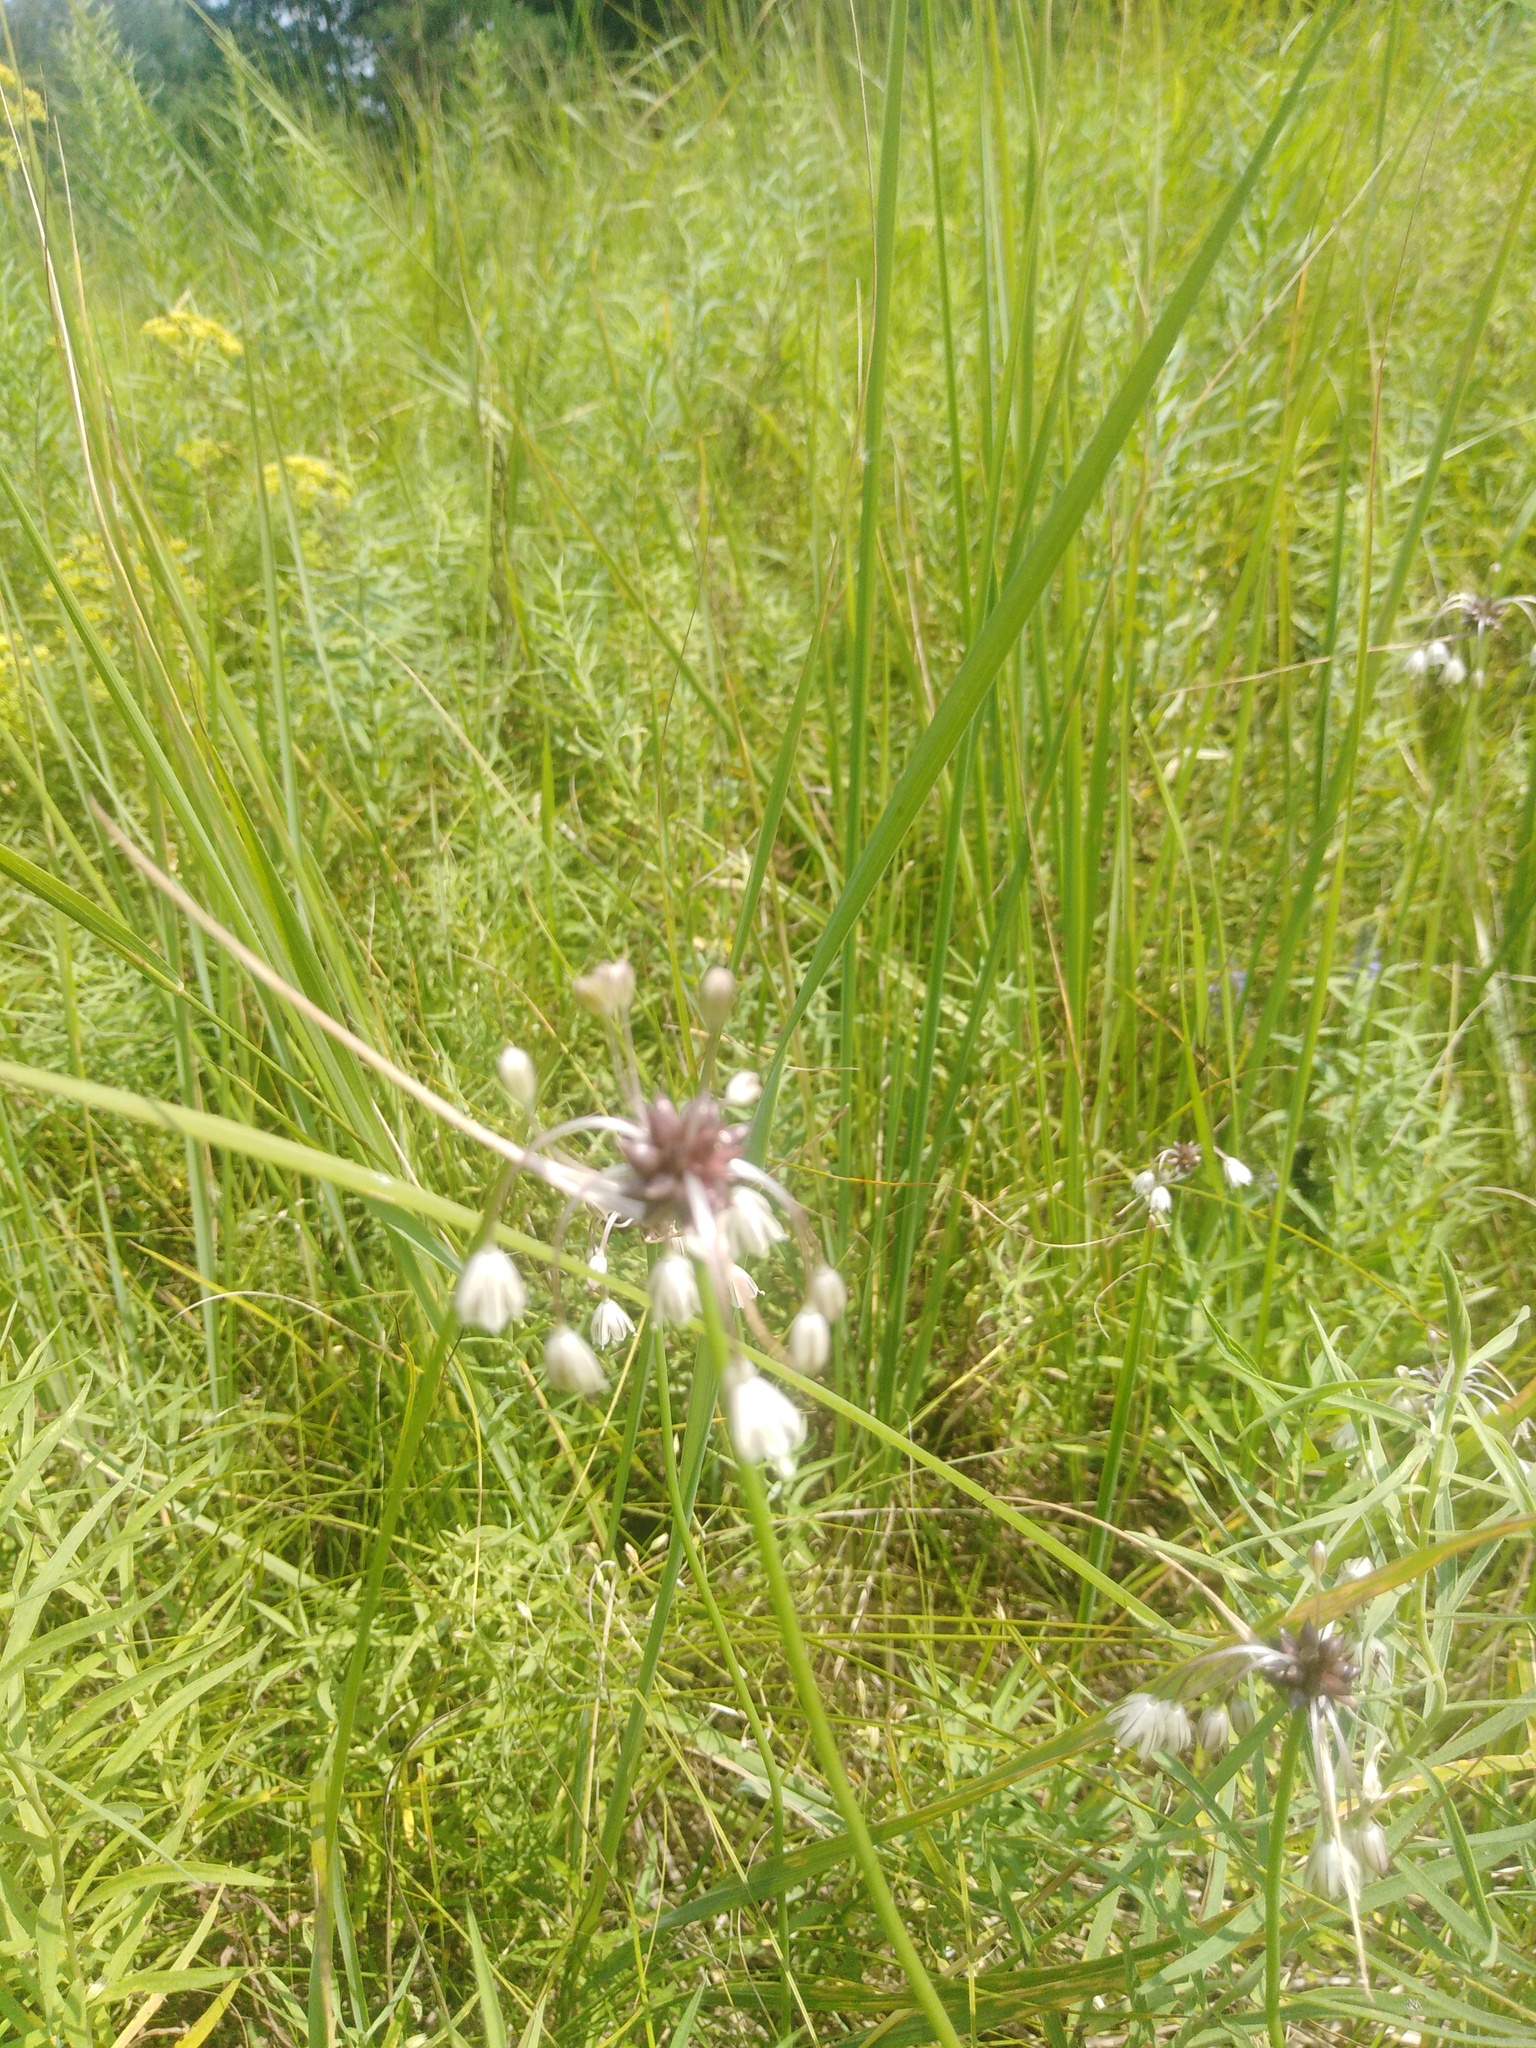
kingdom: Plantae
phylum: Tracheophyta
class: Liliopsida
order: Asparagales
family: Amaryllidaceae
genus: Allium
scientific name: Allium oleraceum
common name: Field garlic
